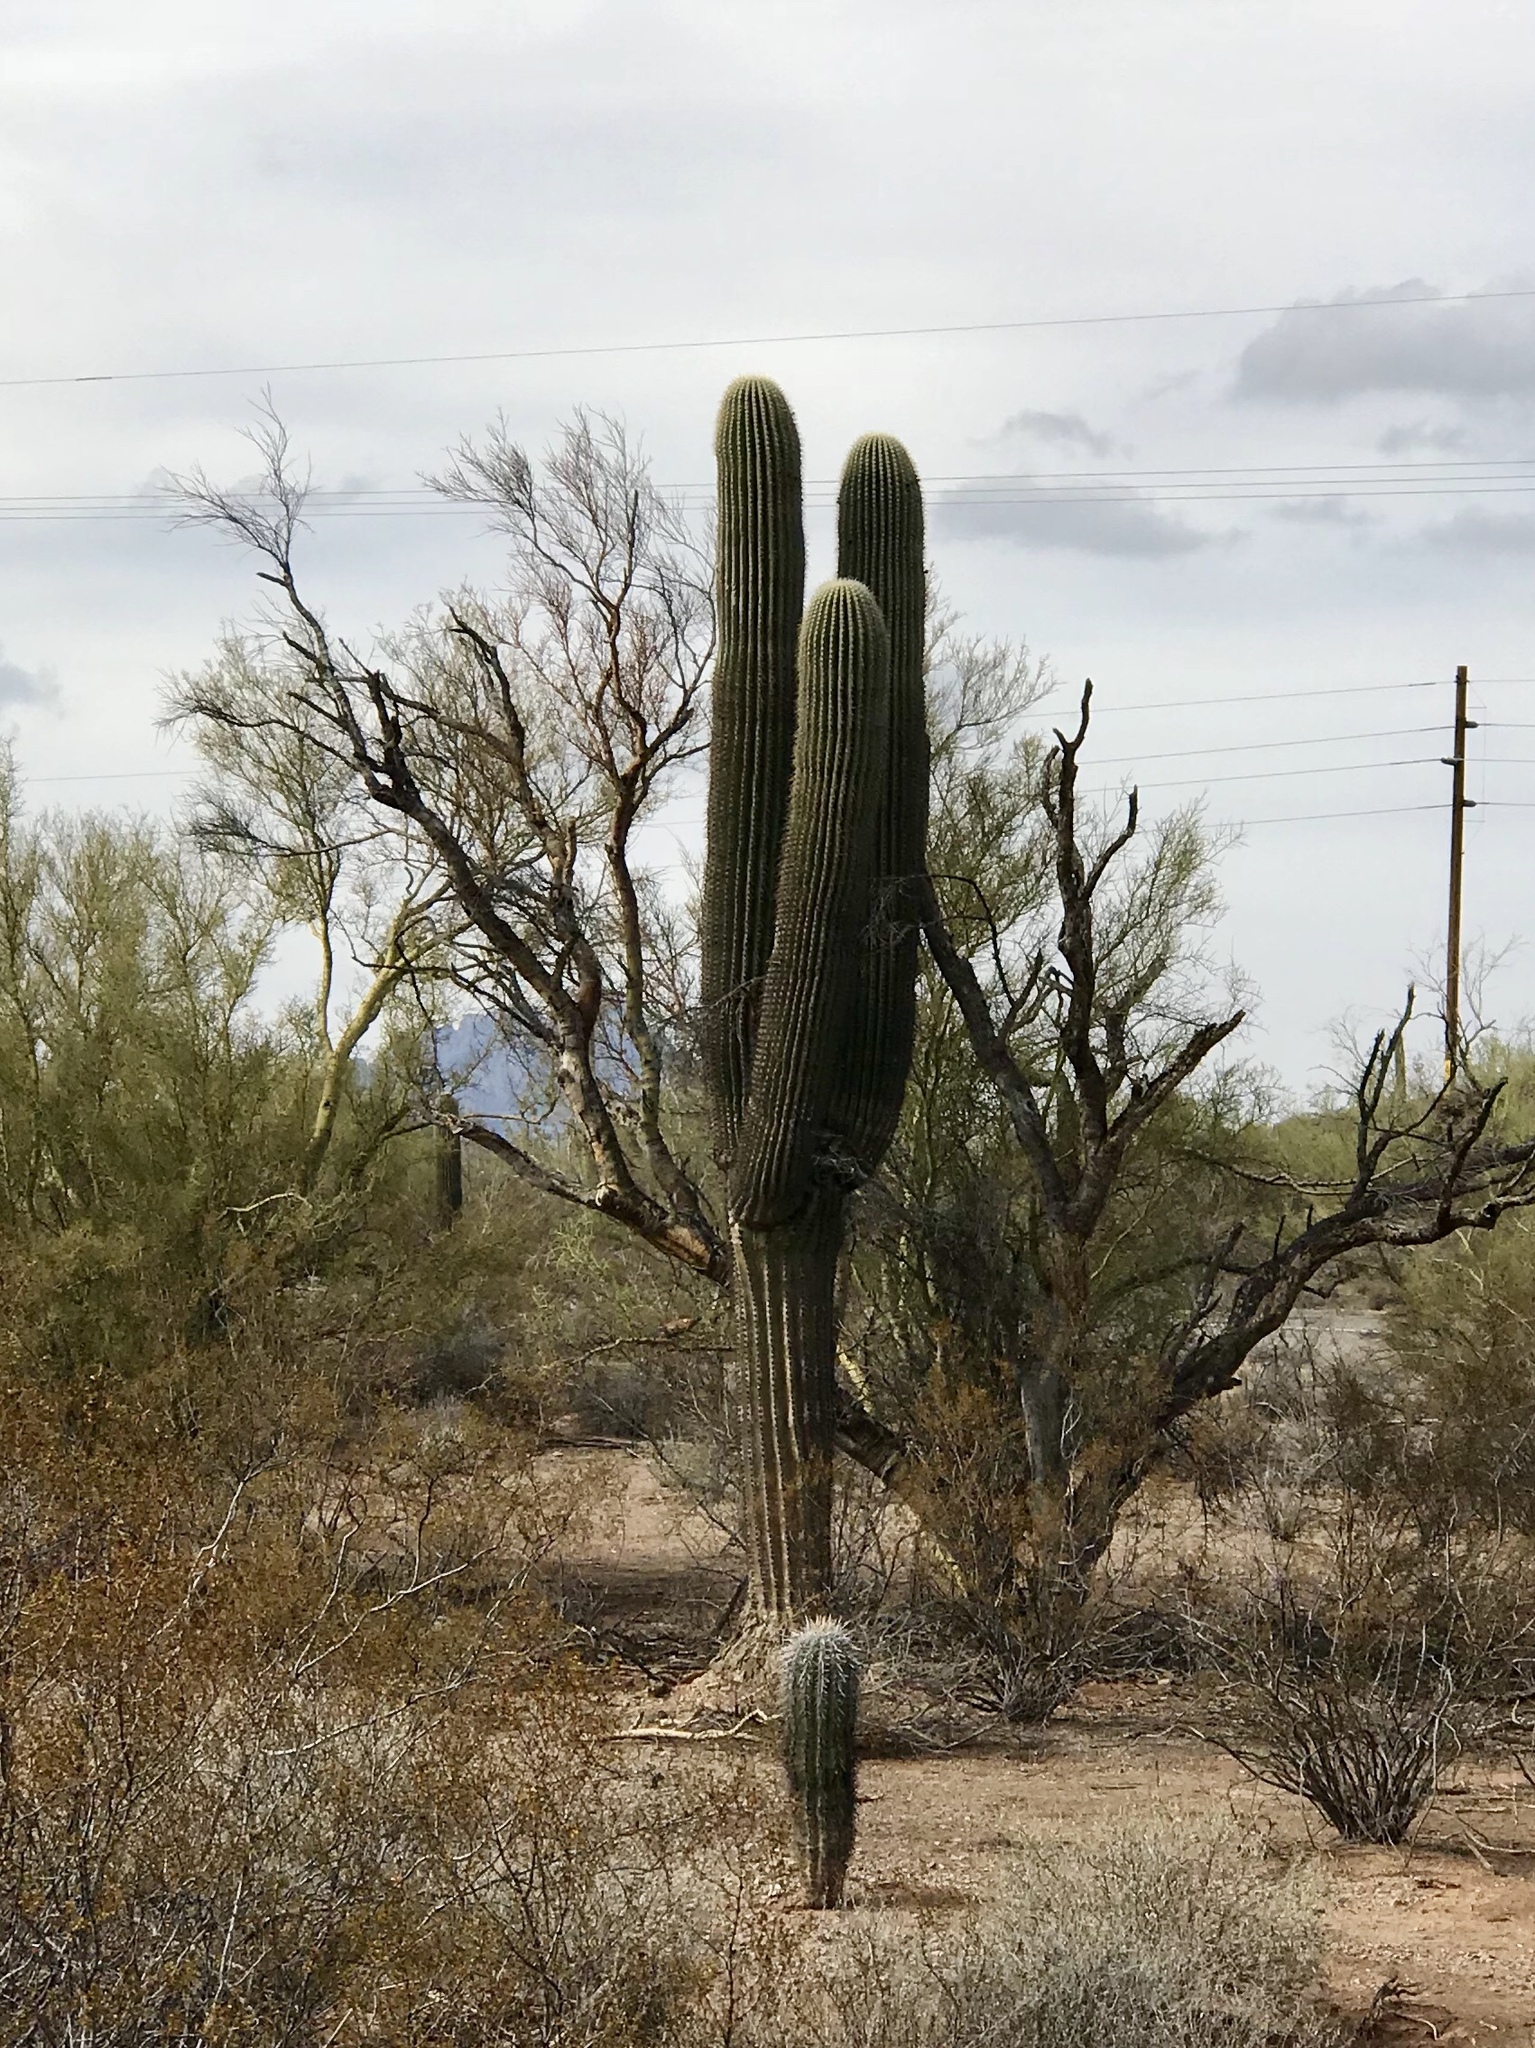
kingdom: Plantae
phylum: Tracheophyta
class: Magnoliopsida
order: Caryophyllales
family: Cactaceae
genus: Carnegiea
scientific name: Carnegiea gigantea
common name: Saguaro
